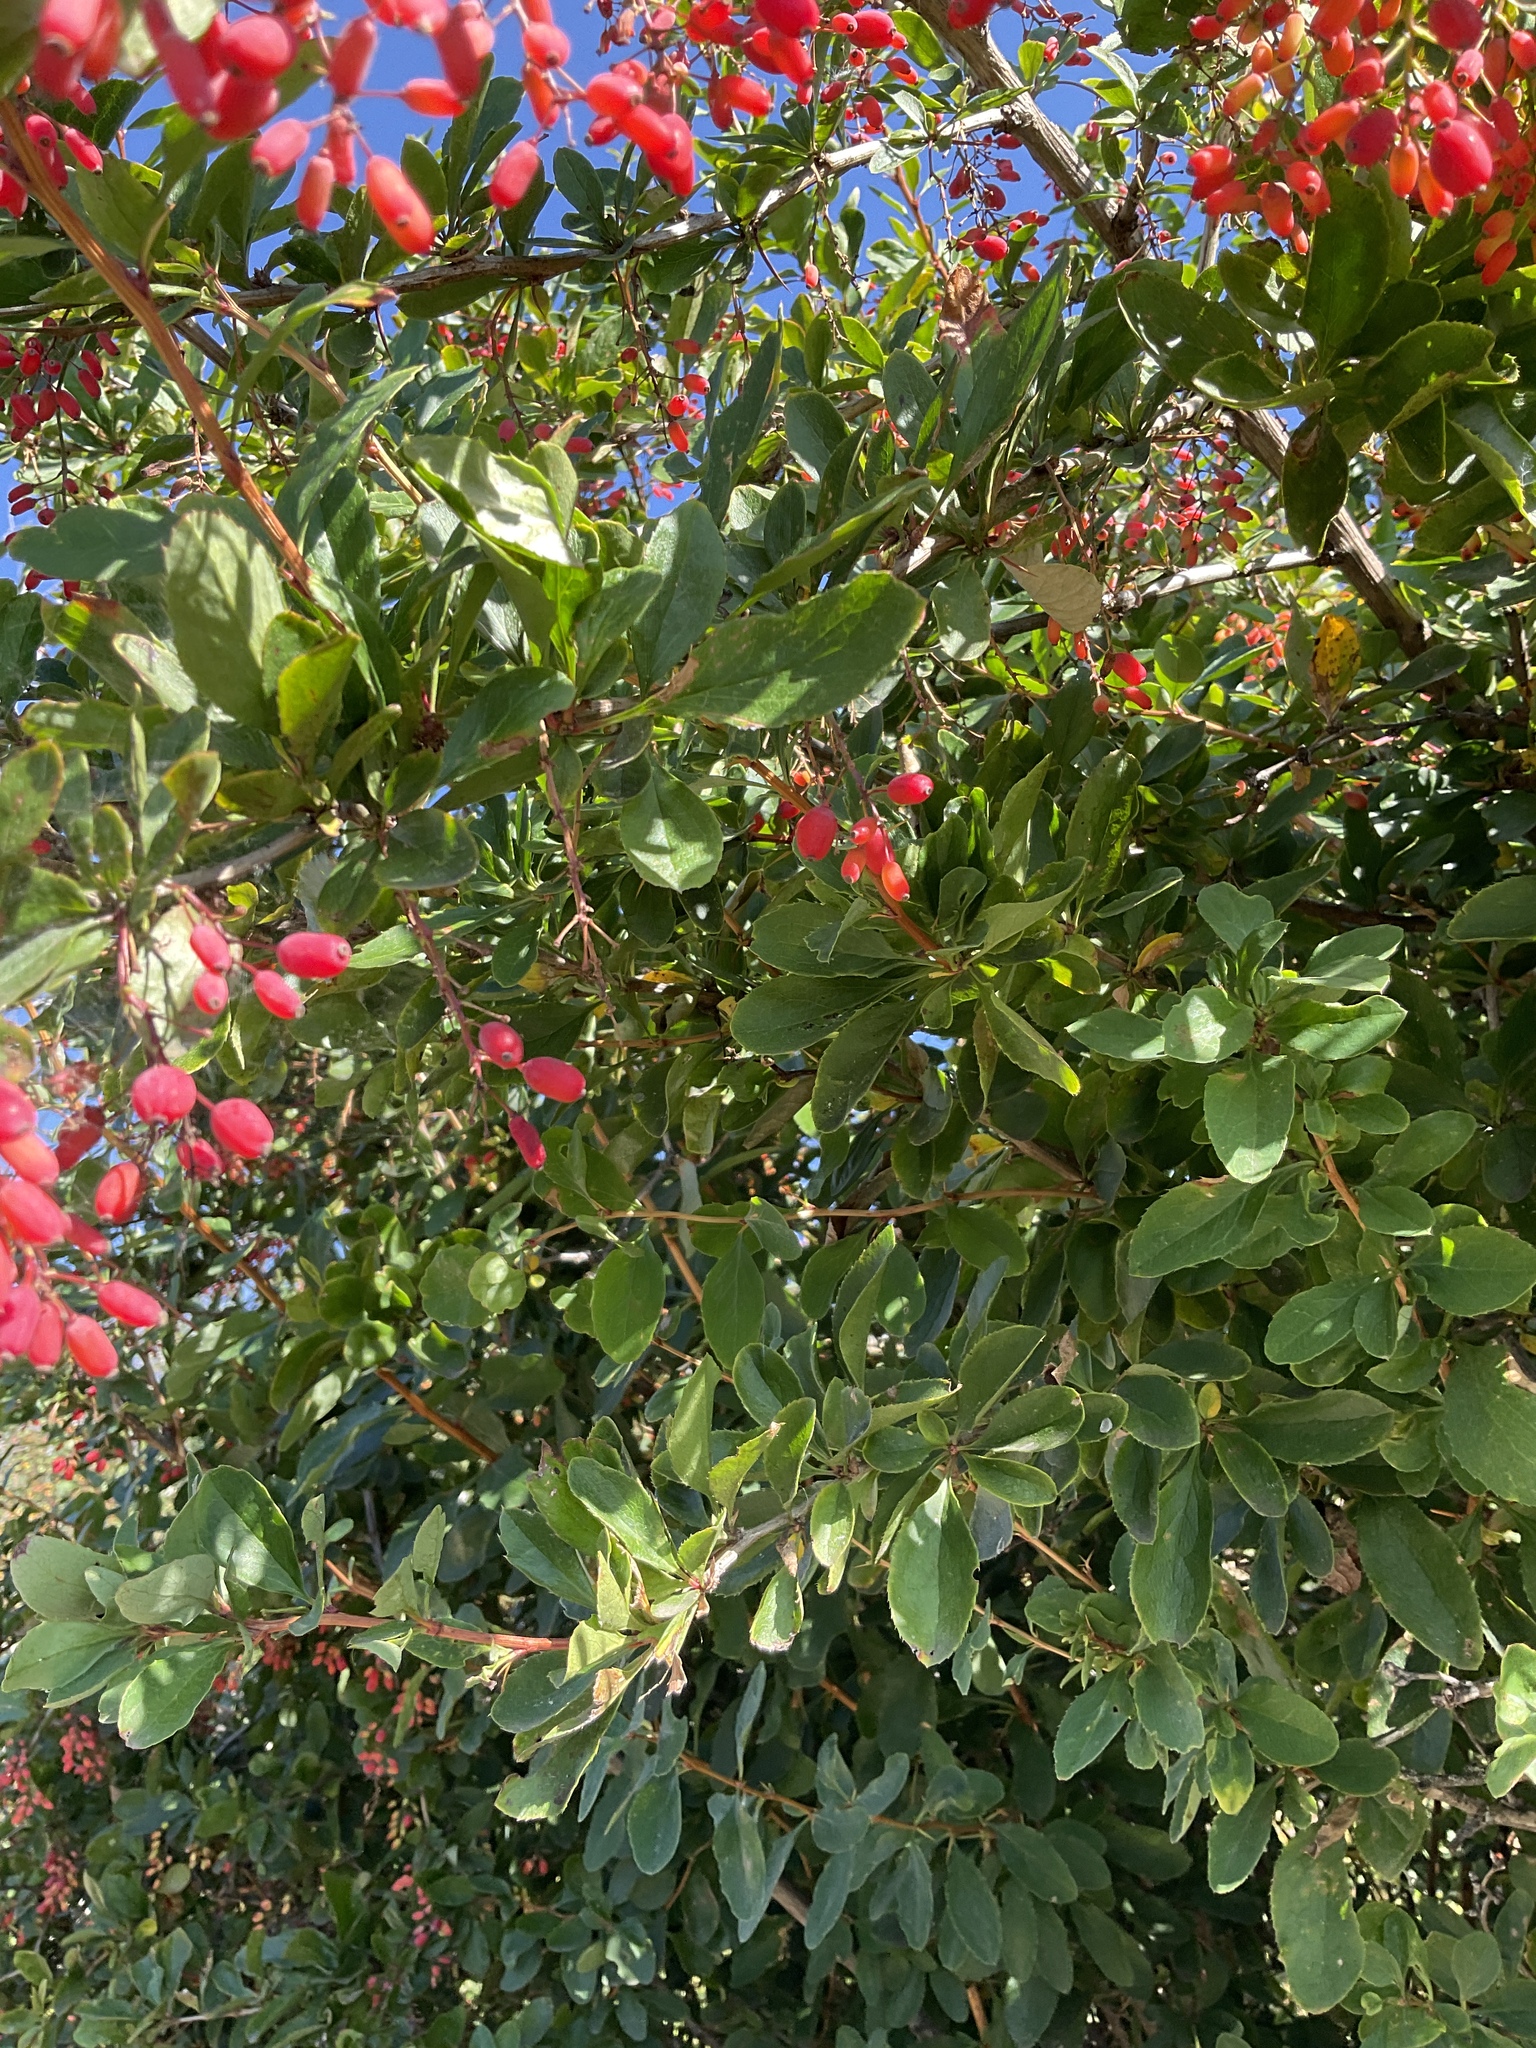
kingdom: Plantae
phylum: Tracheophyta
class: Magnoliopsida
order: Ranunculales
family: Berberidaceae
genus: Berberis
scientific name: Berberis vulgaris
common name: Barberry
